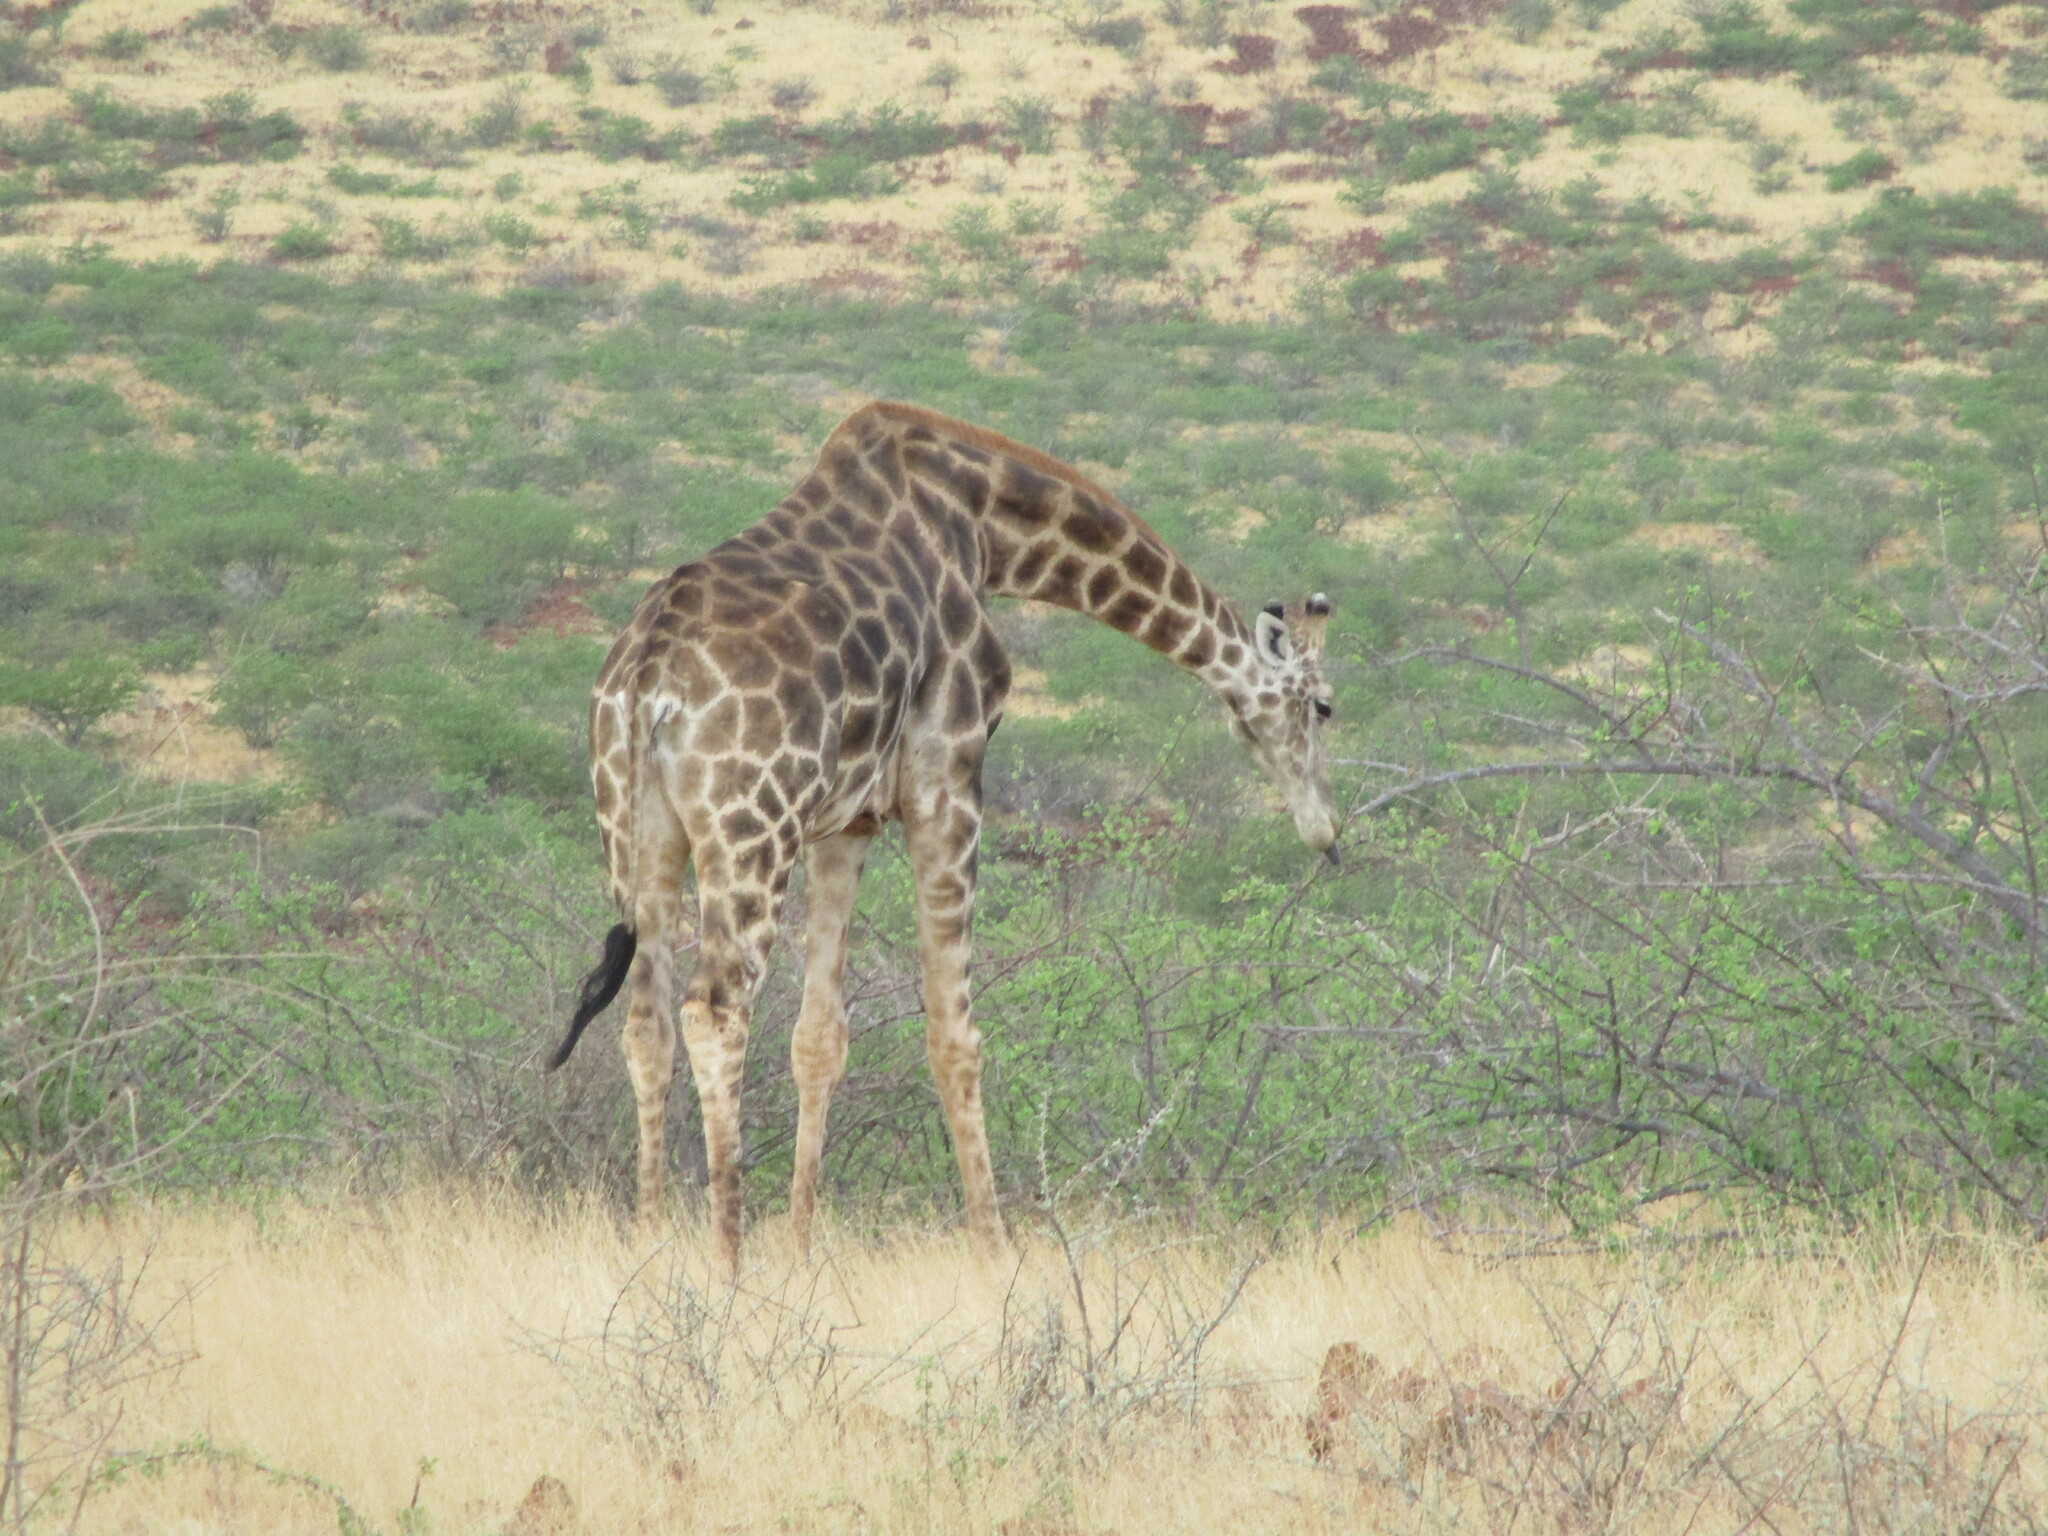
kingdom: Animalia
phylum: Chordata
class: Mammalia
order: Artiodactyla
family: Giraffidae
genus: Giraffa
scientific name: Giraffa giraffa
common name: Southern giraffe
